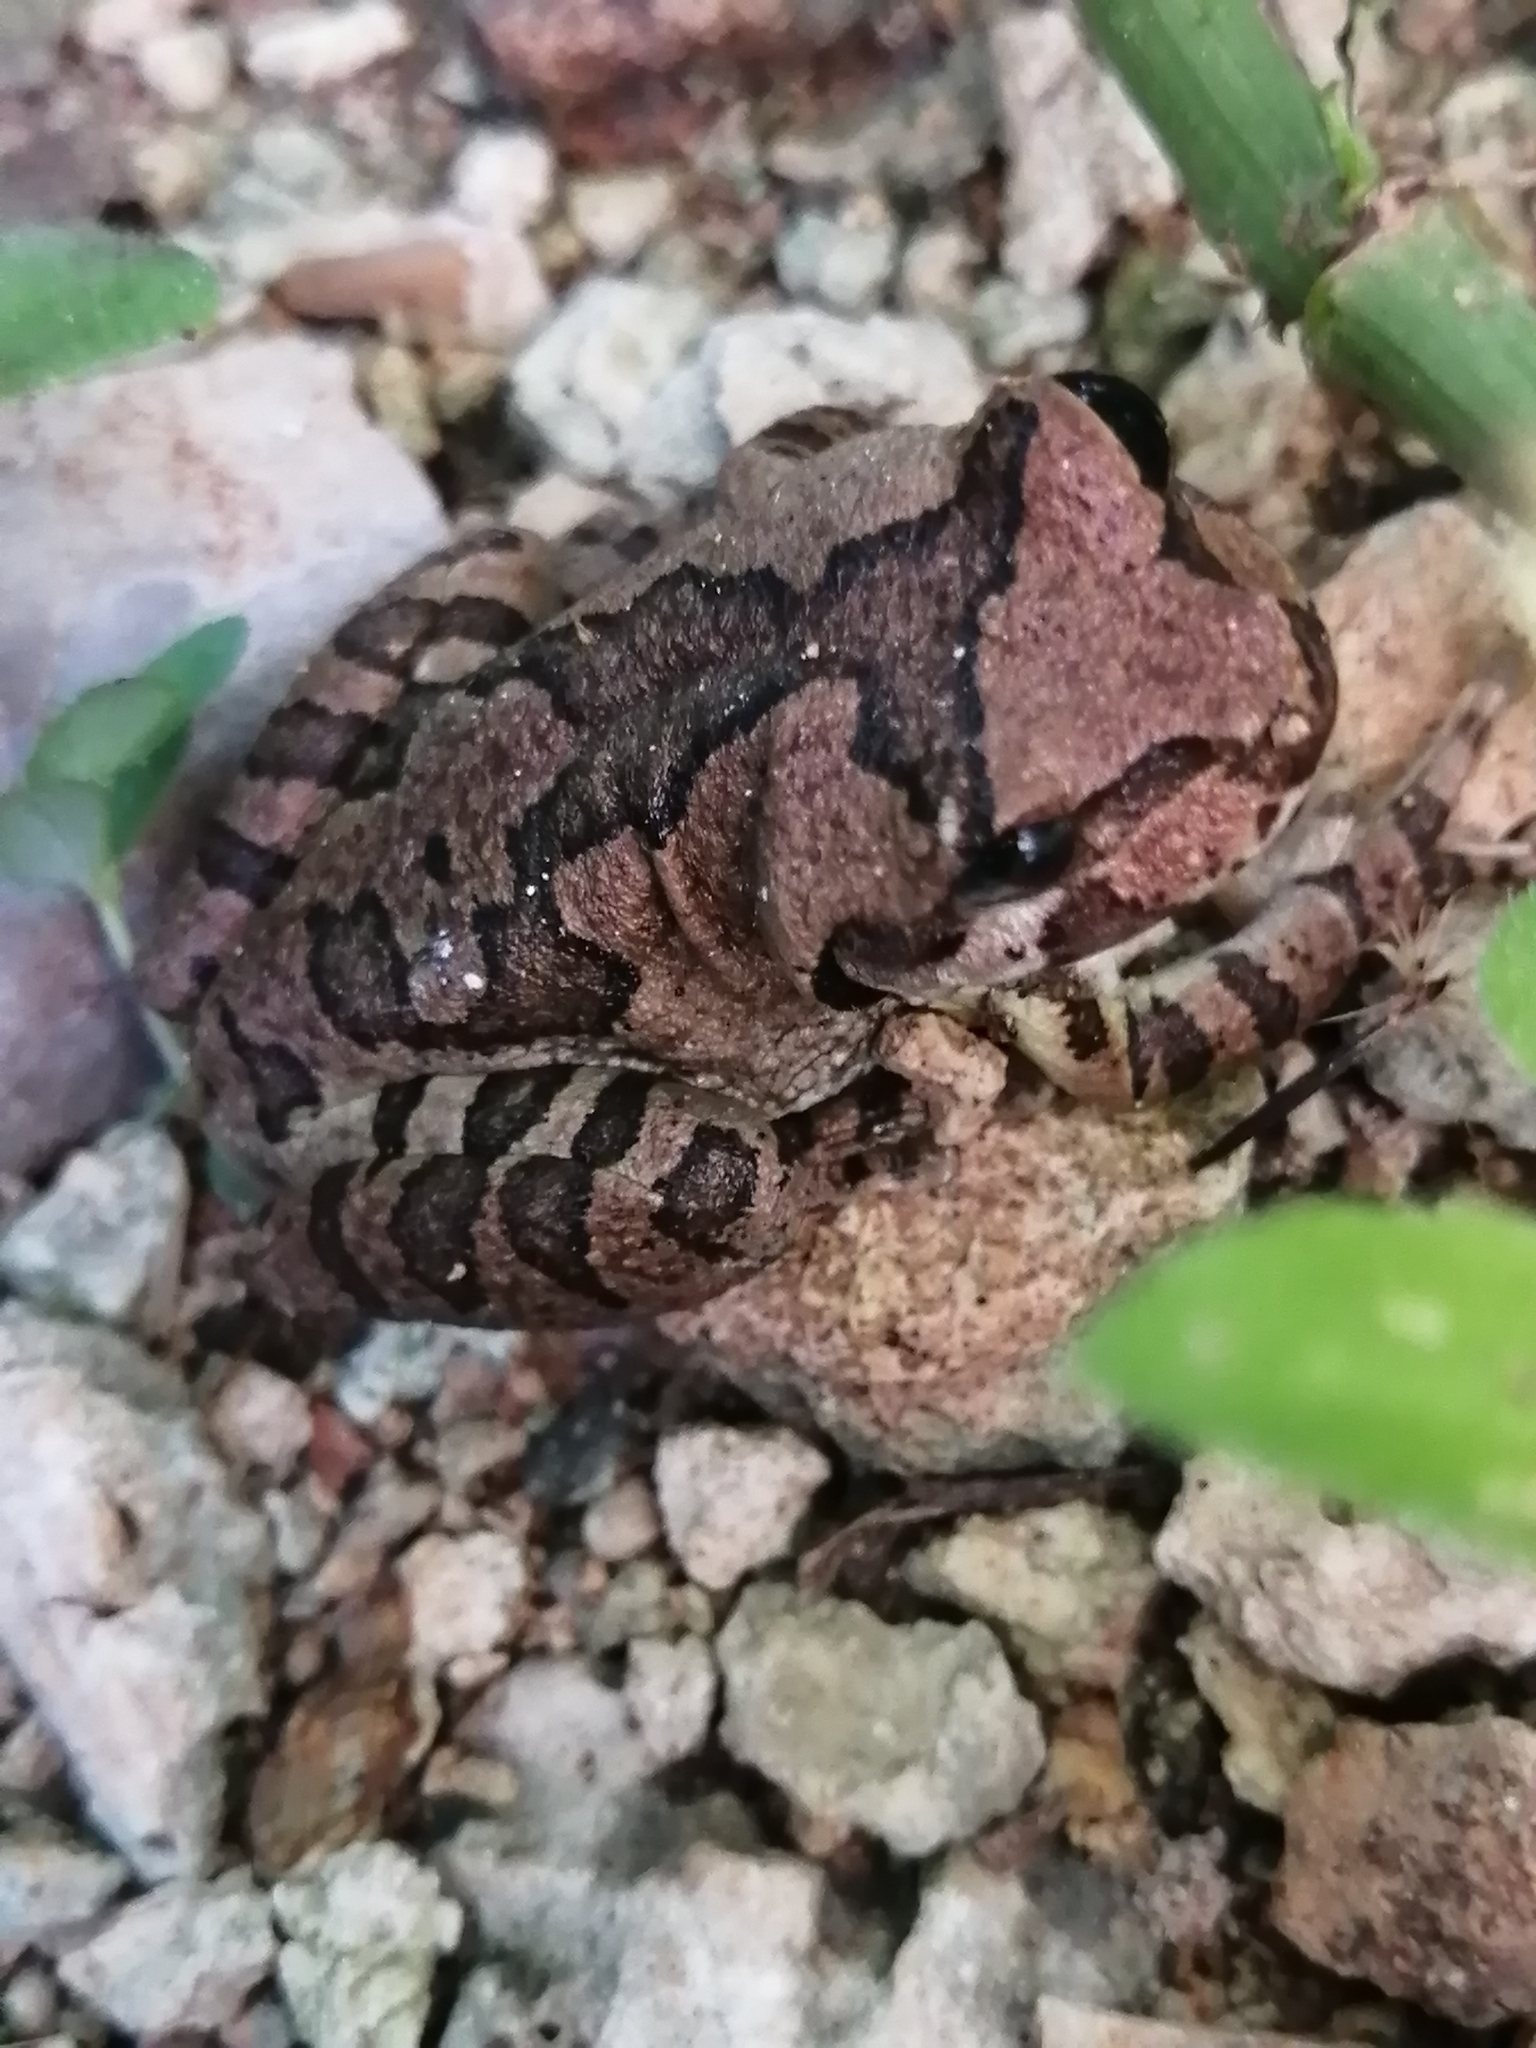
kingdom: Animalia
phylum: Chordata
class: Amphibia
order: Anura
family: Hylidae
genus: Smilisca
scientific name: Smilisca baudinii
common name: Mexican smilisca
